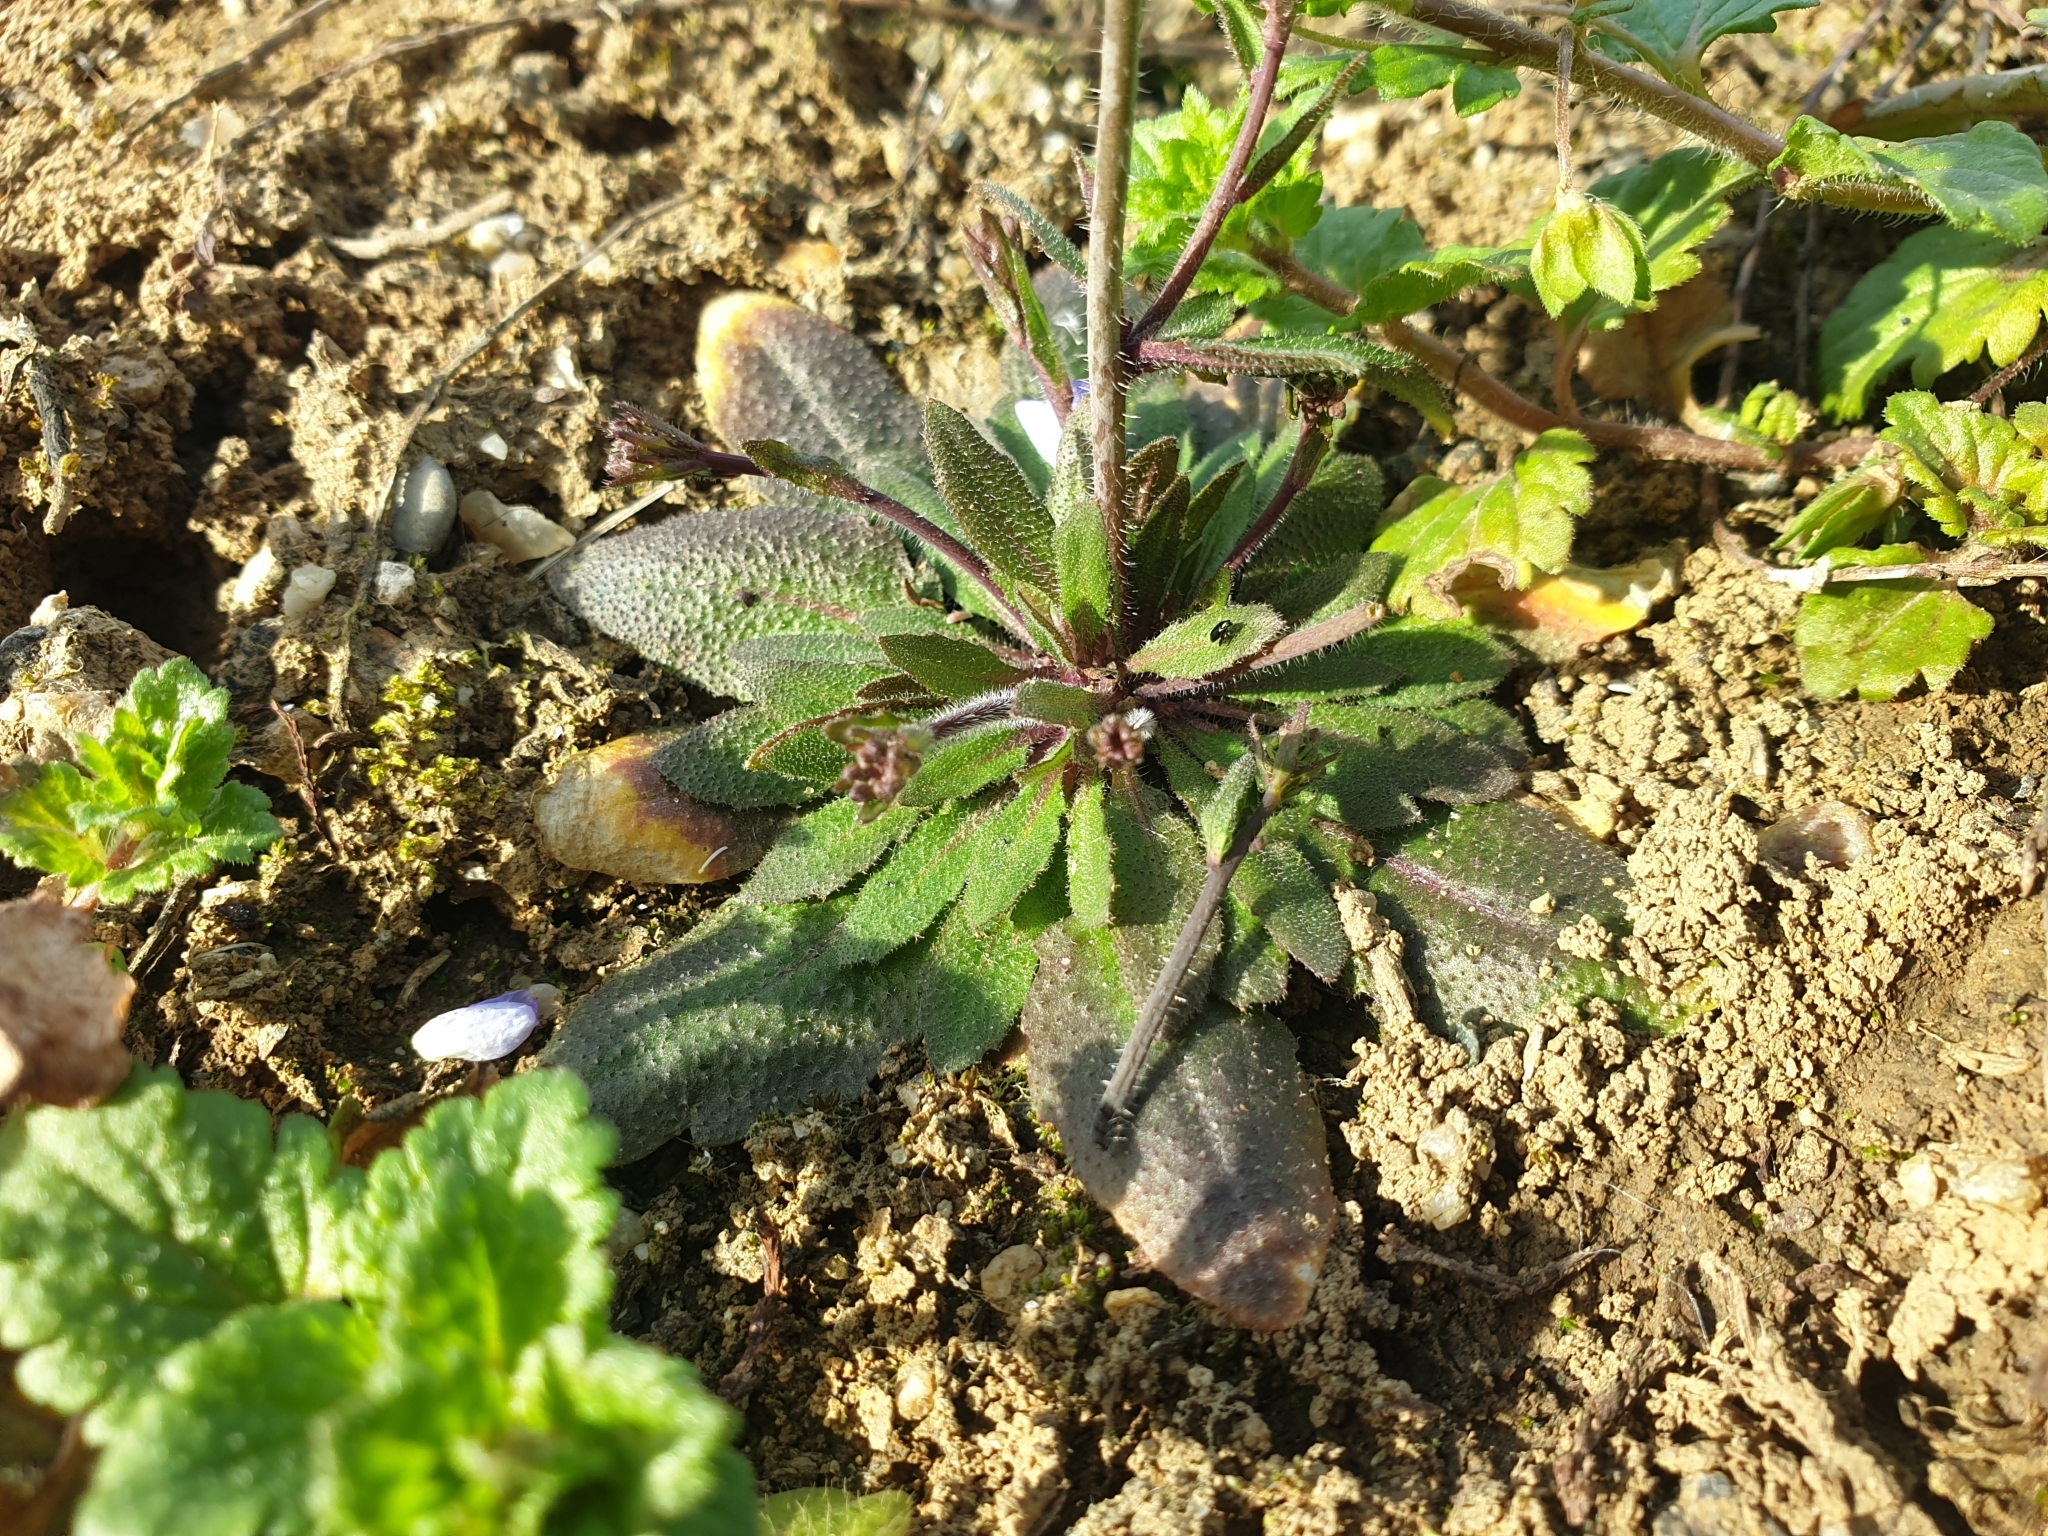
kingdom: Plantae
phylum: Tracheophyta
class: Magnoliopsida
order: Brassicales
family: Brassicaceae
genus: Arabidopsis
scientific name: Arabidopsis thaliana
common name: Thale cress
